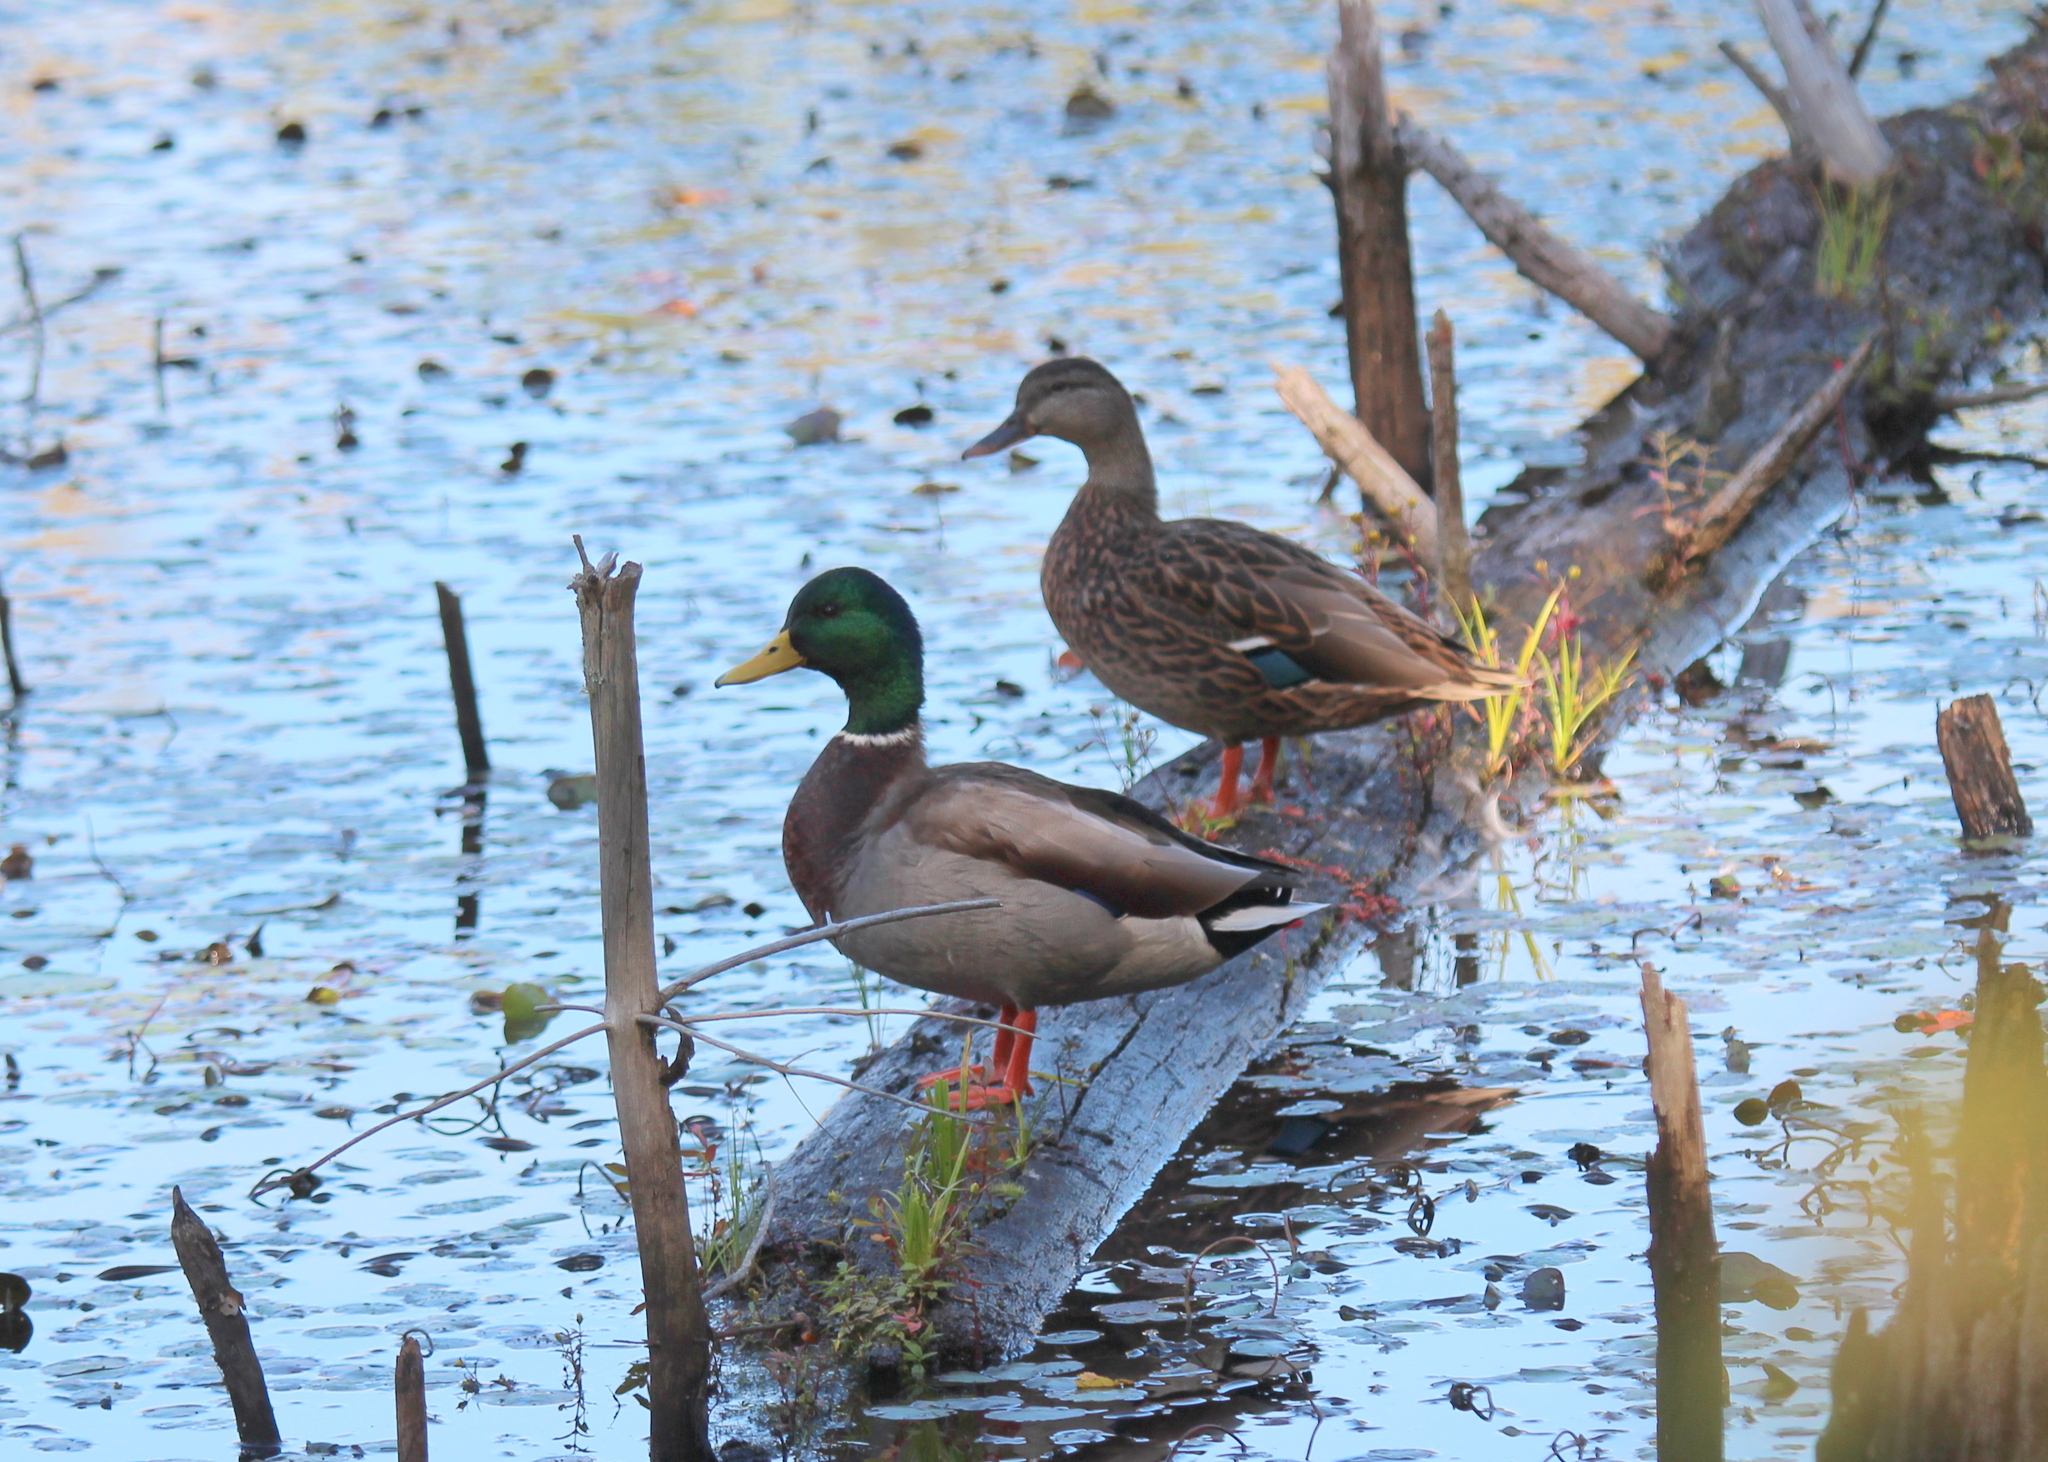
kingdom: Animalia
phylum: Chordata
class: Aves
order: Anseriformes
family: Anatidae
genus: Anas
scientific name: Anas platyrhynchos
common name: Mallard
